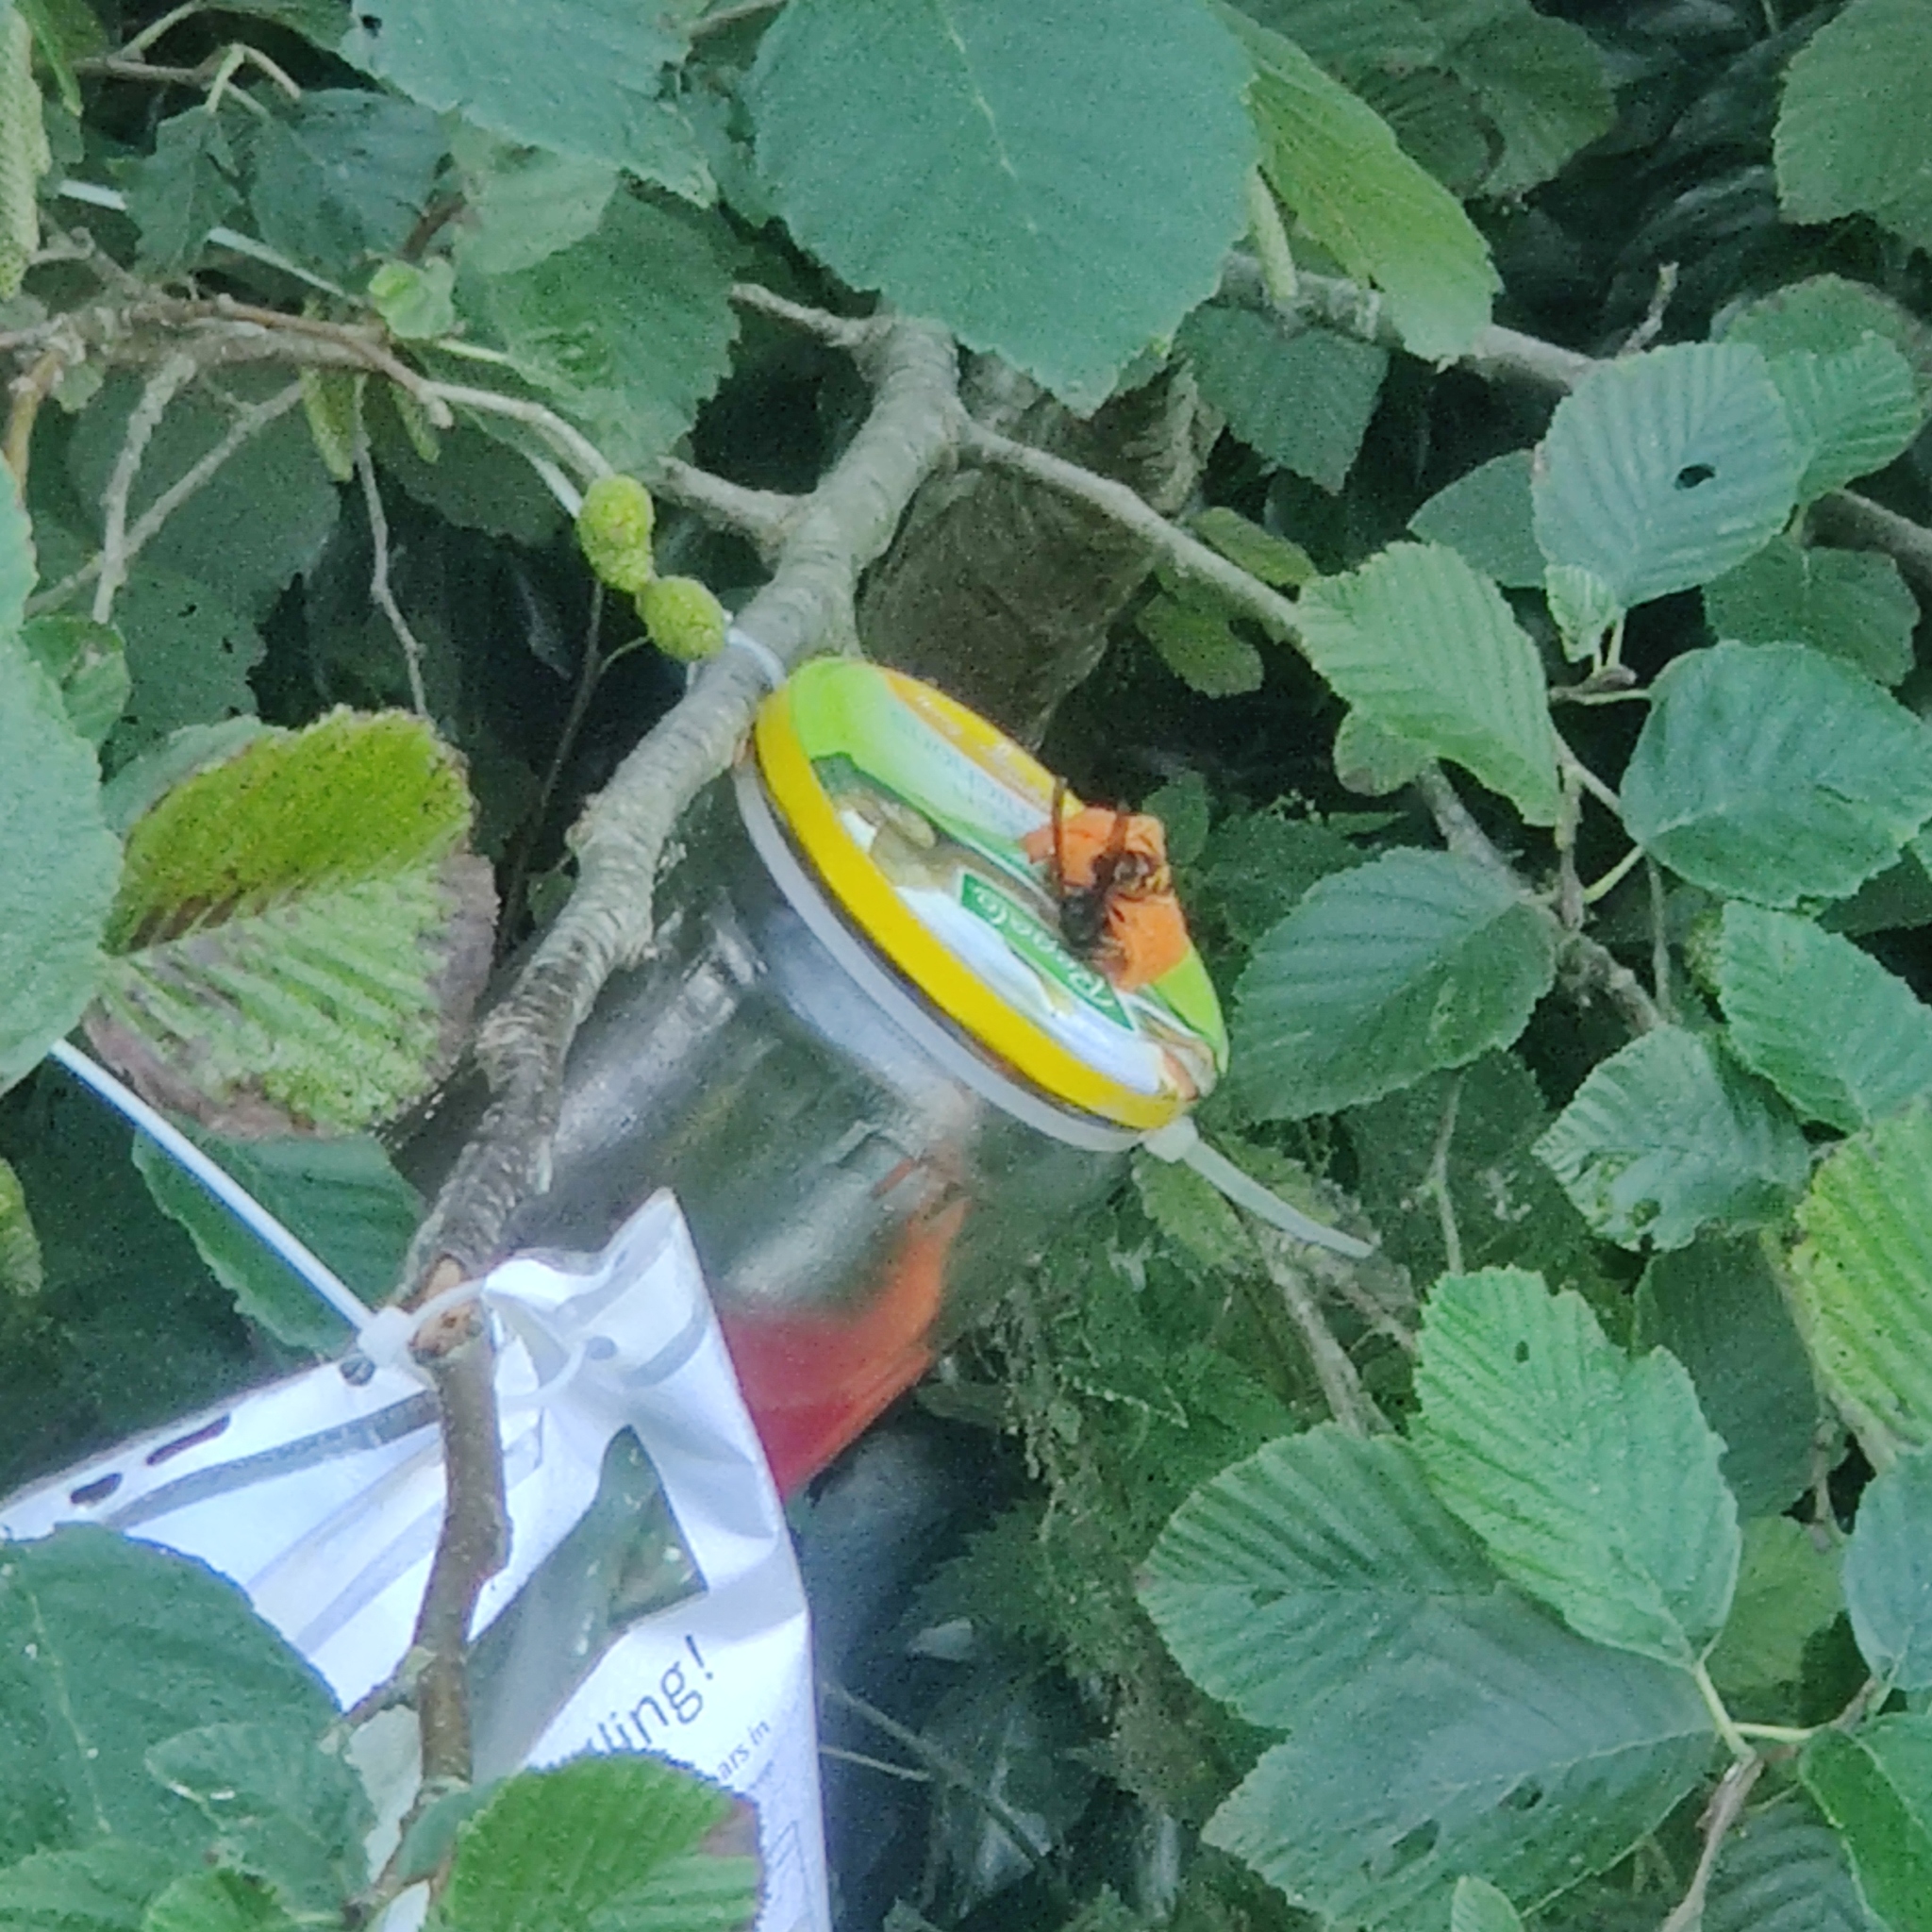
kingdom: Animalia
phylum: Arthropoda
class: Insecta
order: Hymenoptera
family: Vespidae
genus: Vespa
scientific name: Vespa velutina
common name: Asian hornet
